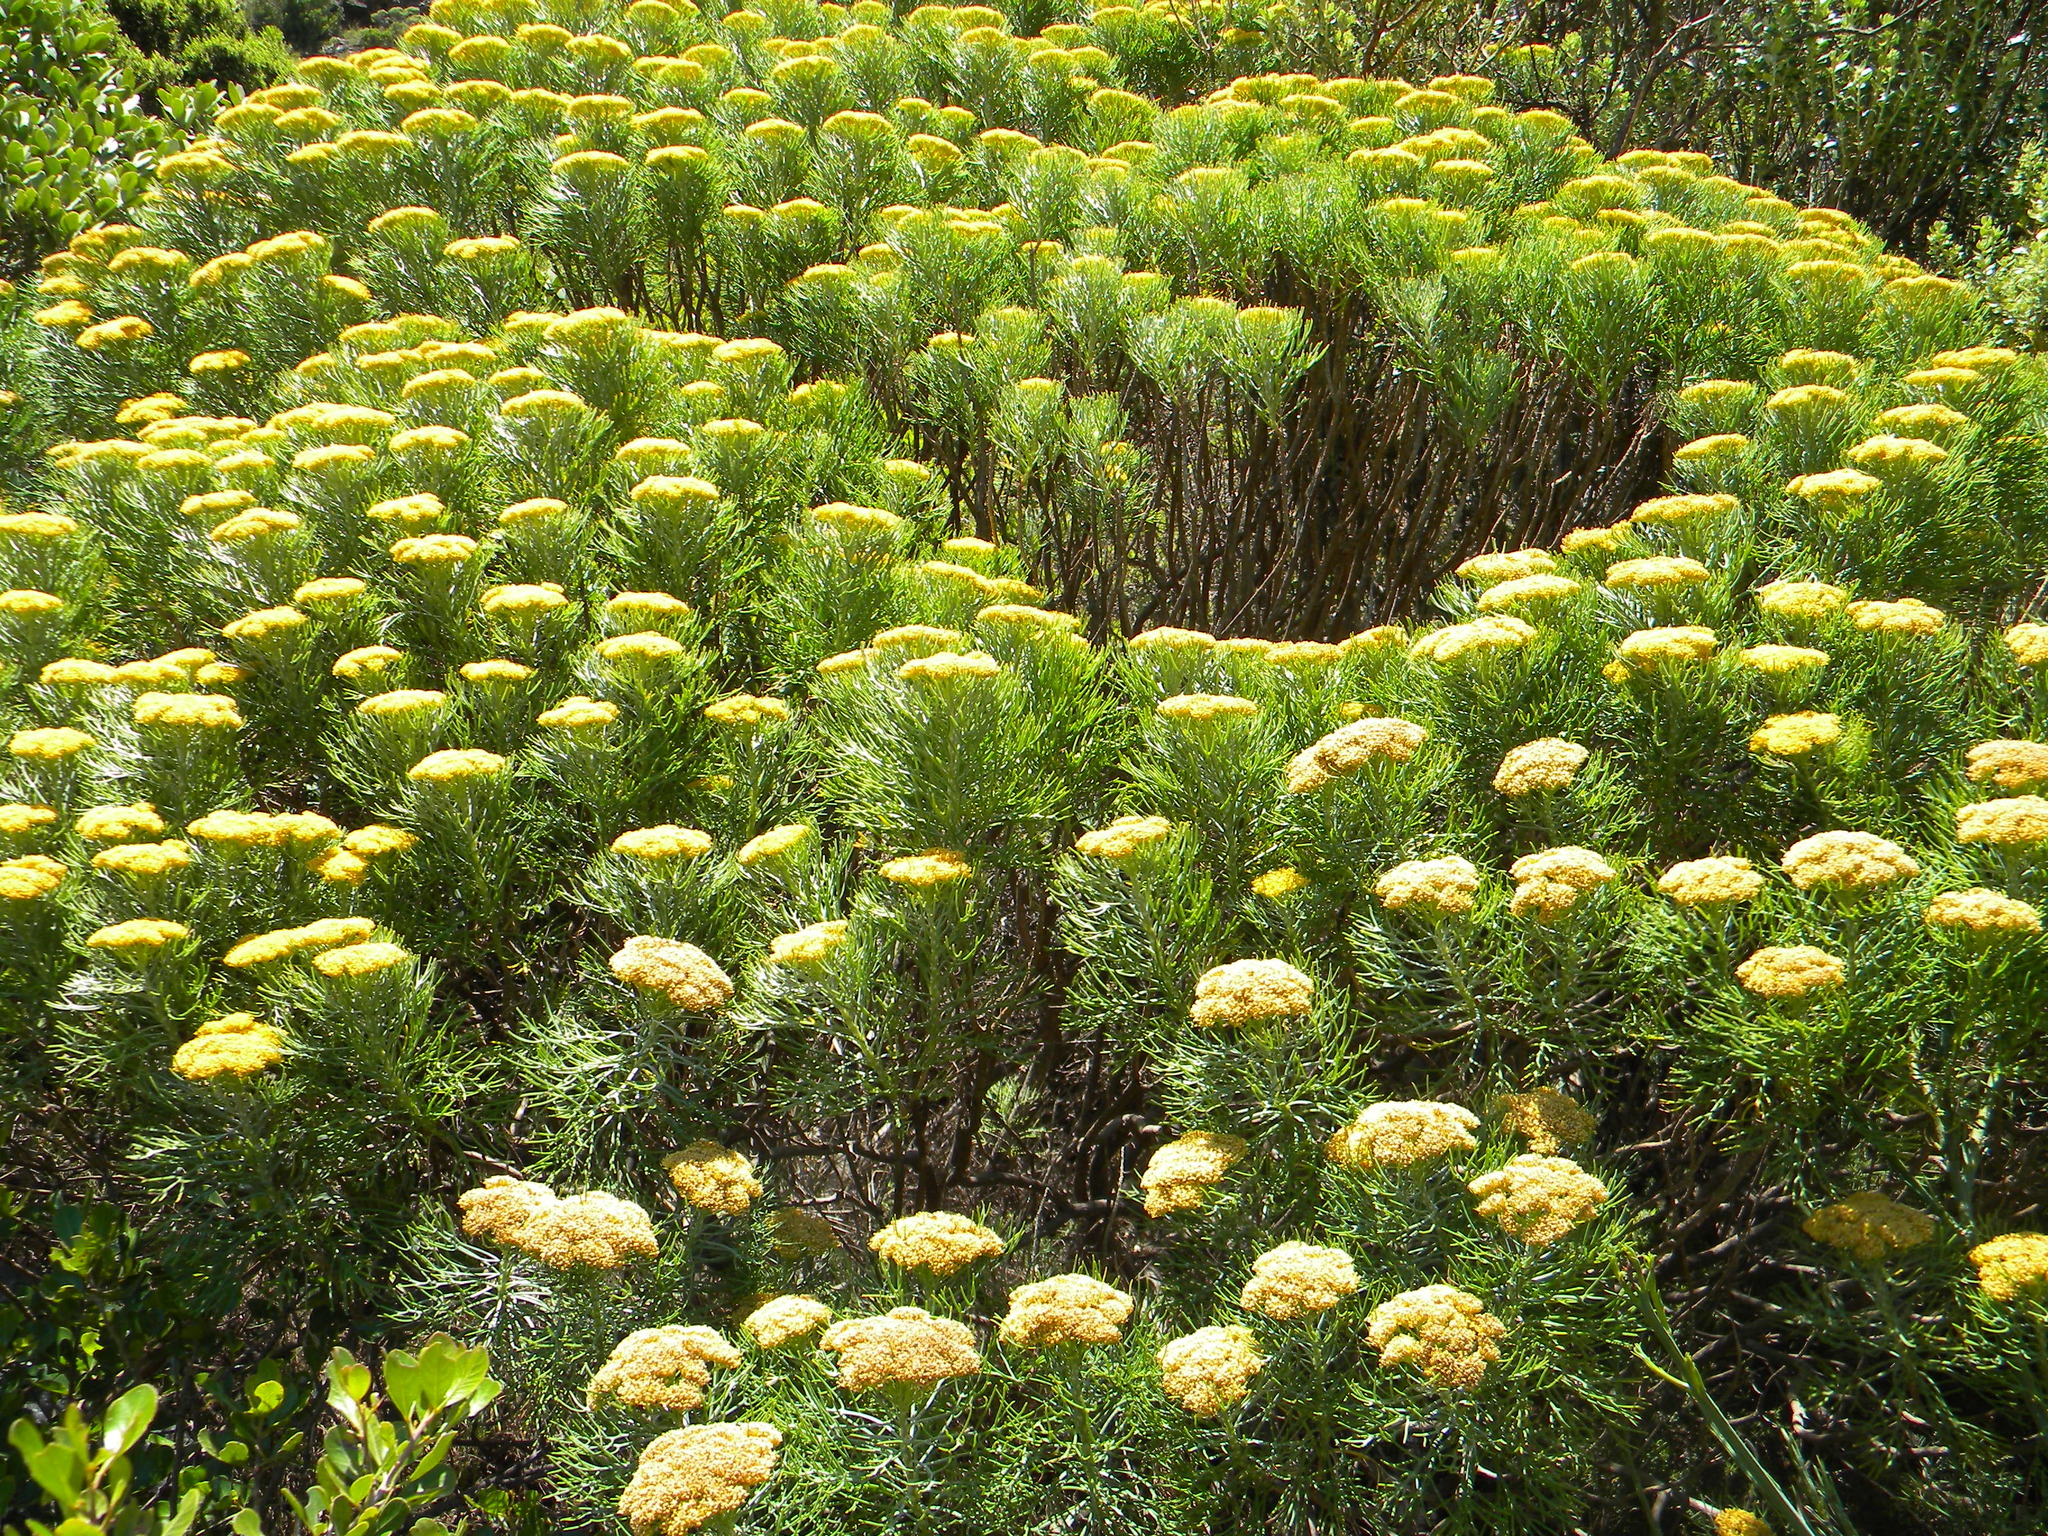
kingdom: Plantae
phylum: Tracheophyta
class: Magnoliopsida
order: Asterales
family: Asteraceae
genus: Hymenolepis
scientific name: Hymenolepis crithmifolia
